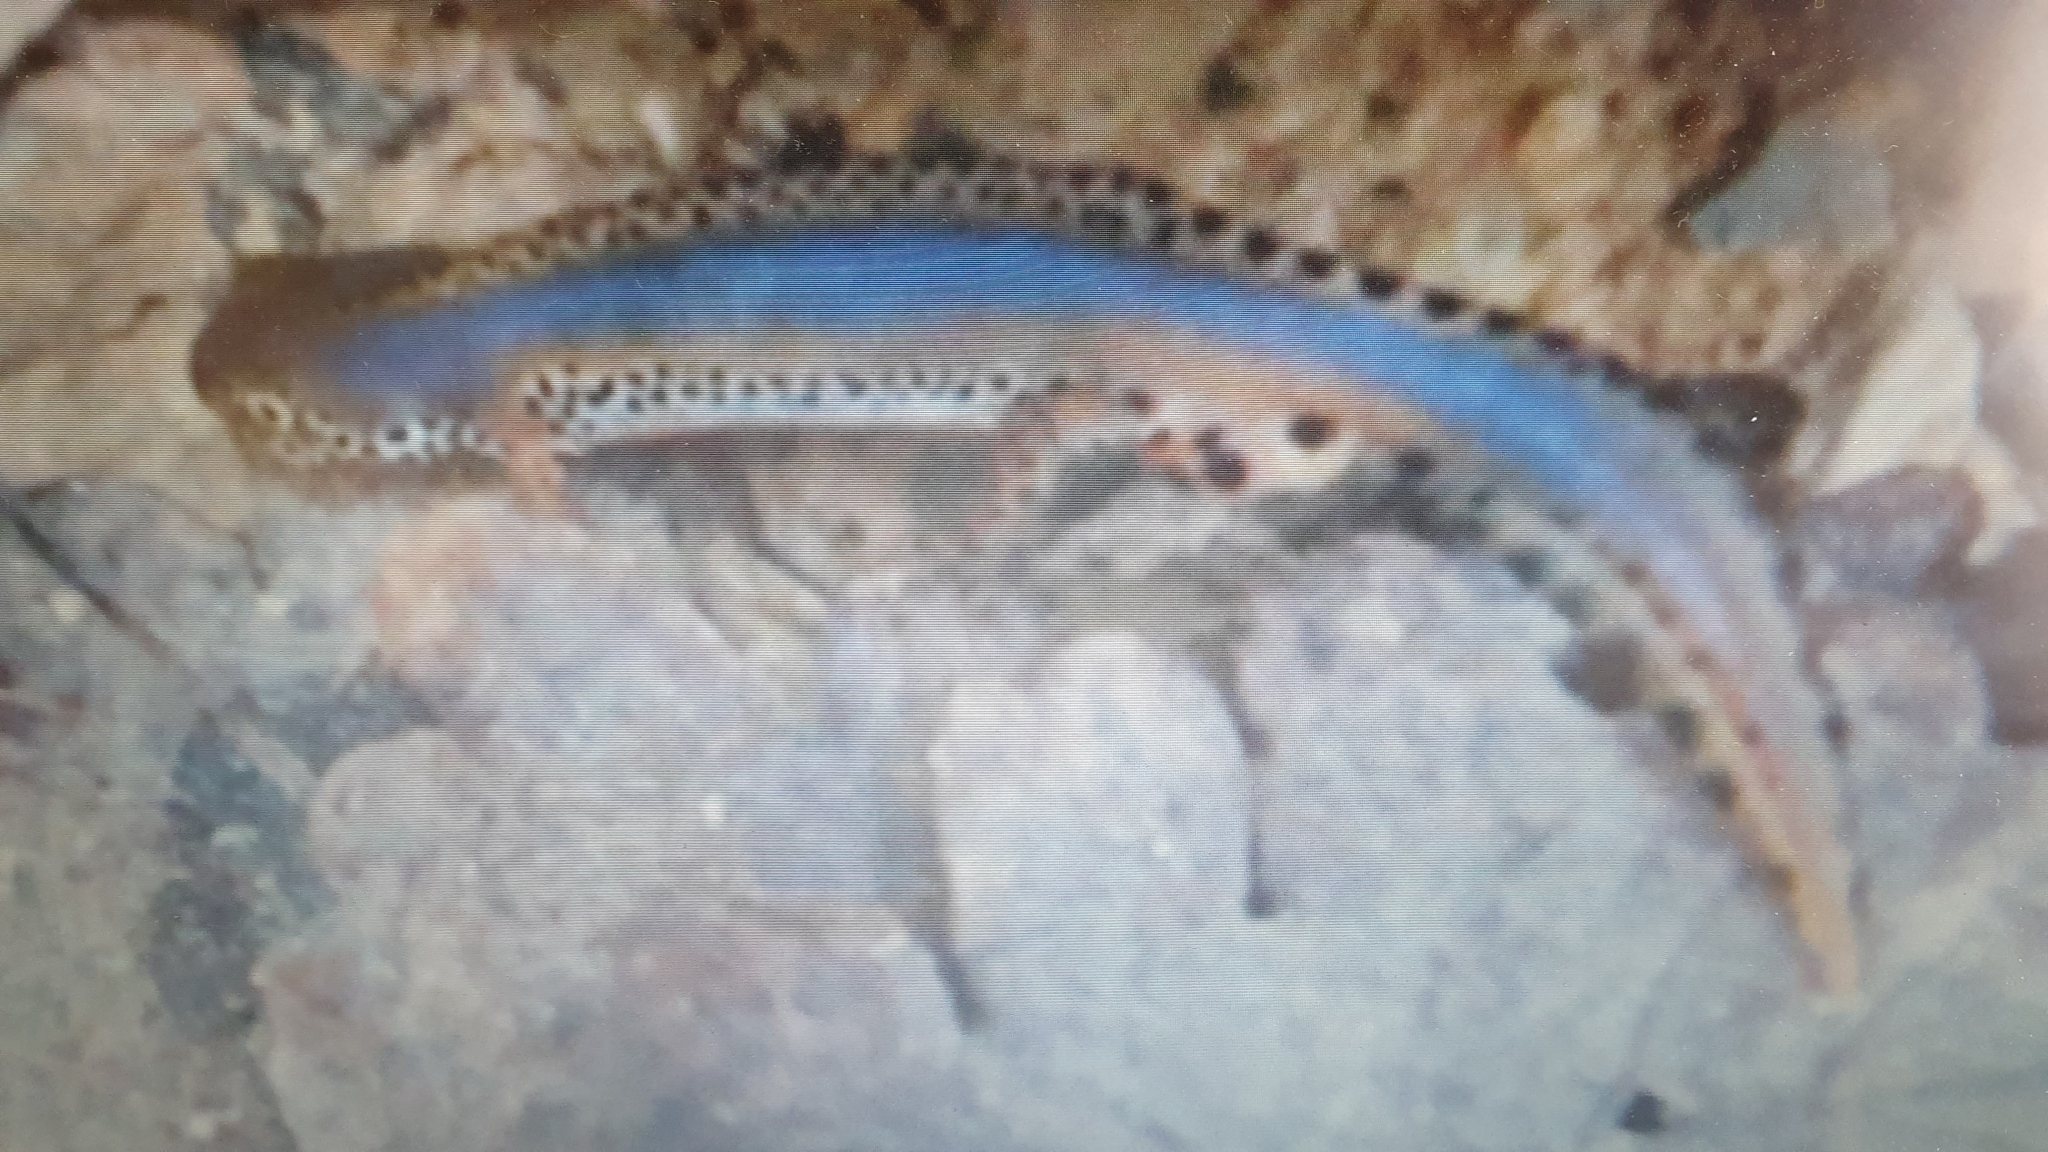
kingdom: Animalia
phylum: Chordata
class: Amphibia
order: Caudata
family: Salamandridae
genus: Ichthyosaura
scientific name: Ichthyosaura alpestris
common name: Alpine newt
